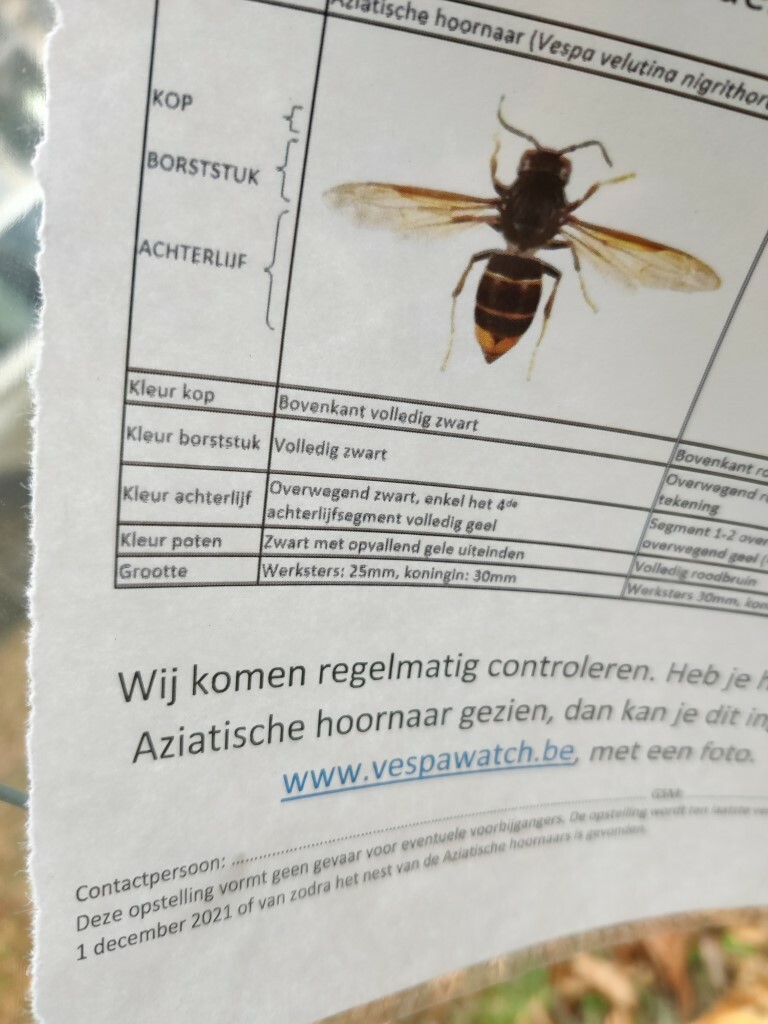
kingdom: Animalia
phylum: Arthropoda
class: Insecta
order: Hymenoptera
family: Vespidae
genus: Vespa
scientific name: Vespa velutina
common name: Asian hornet
